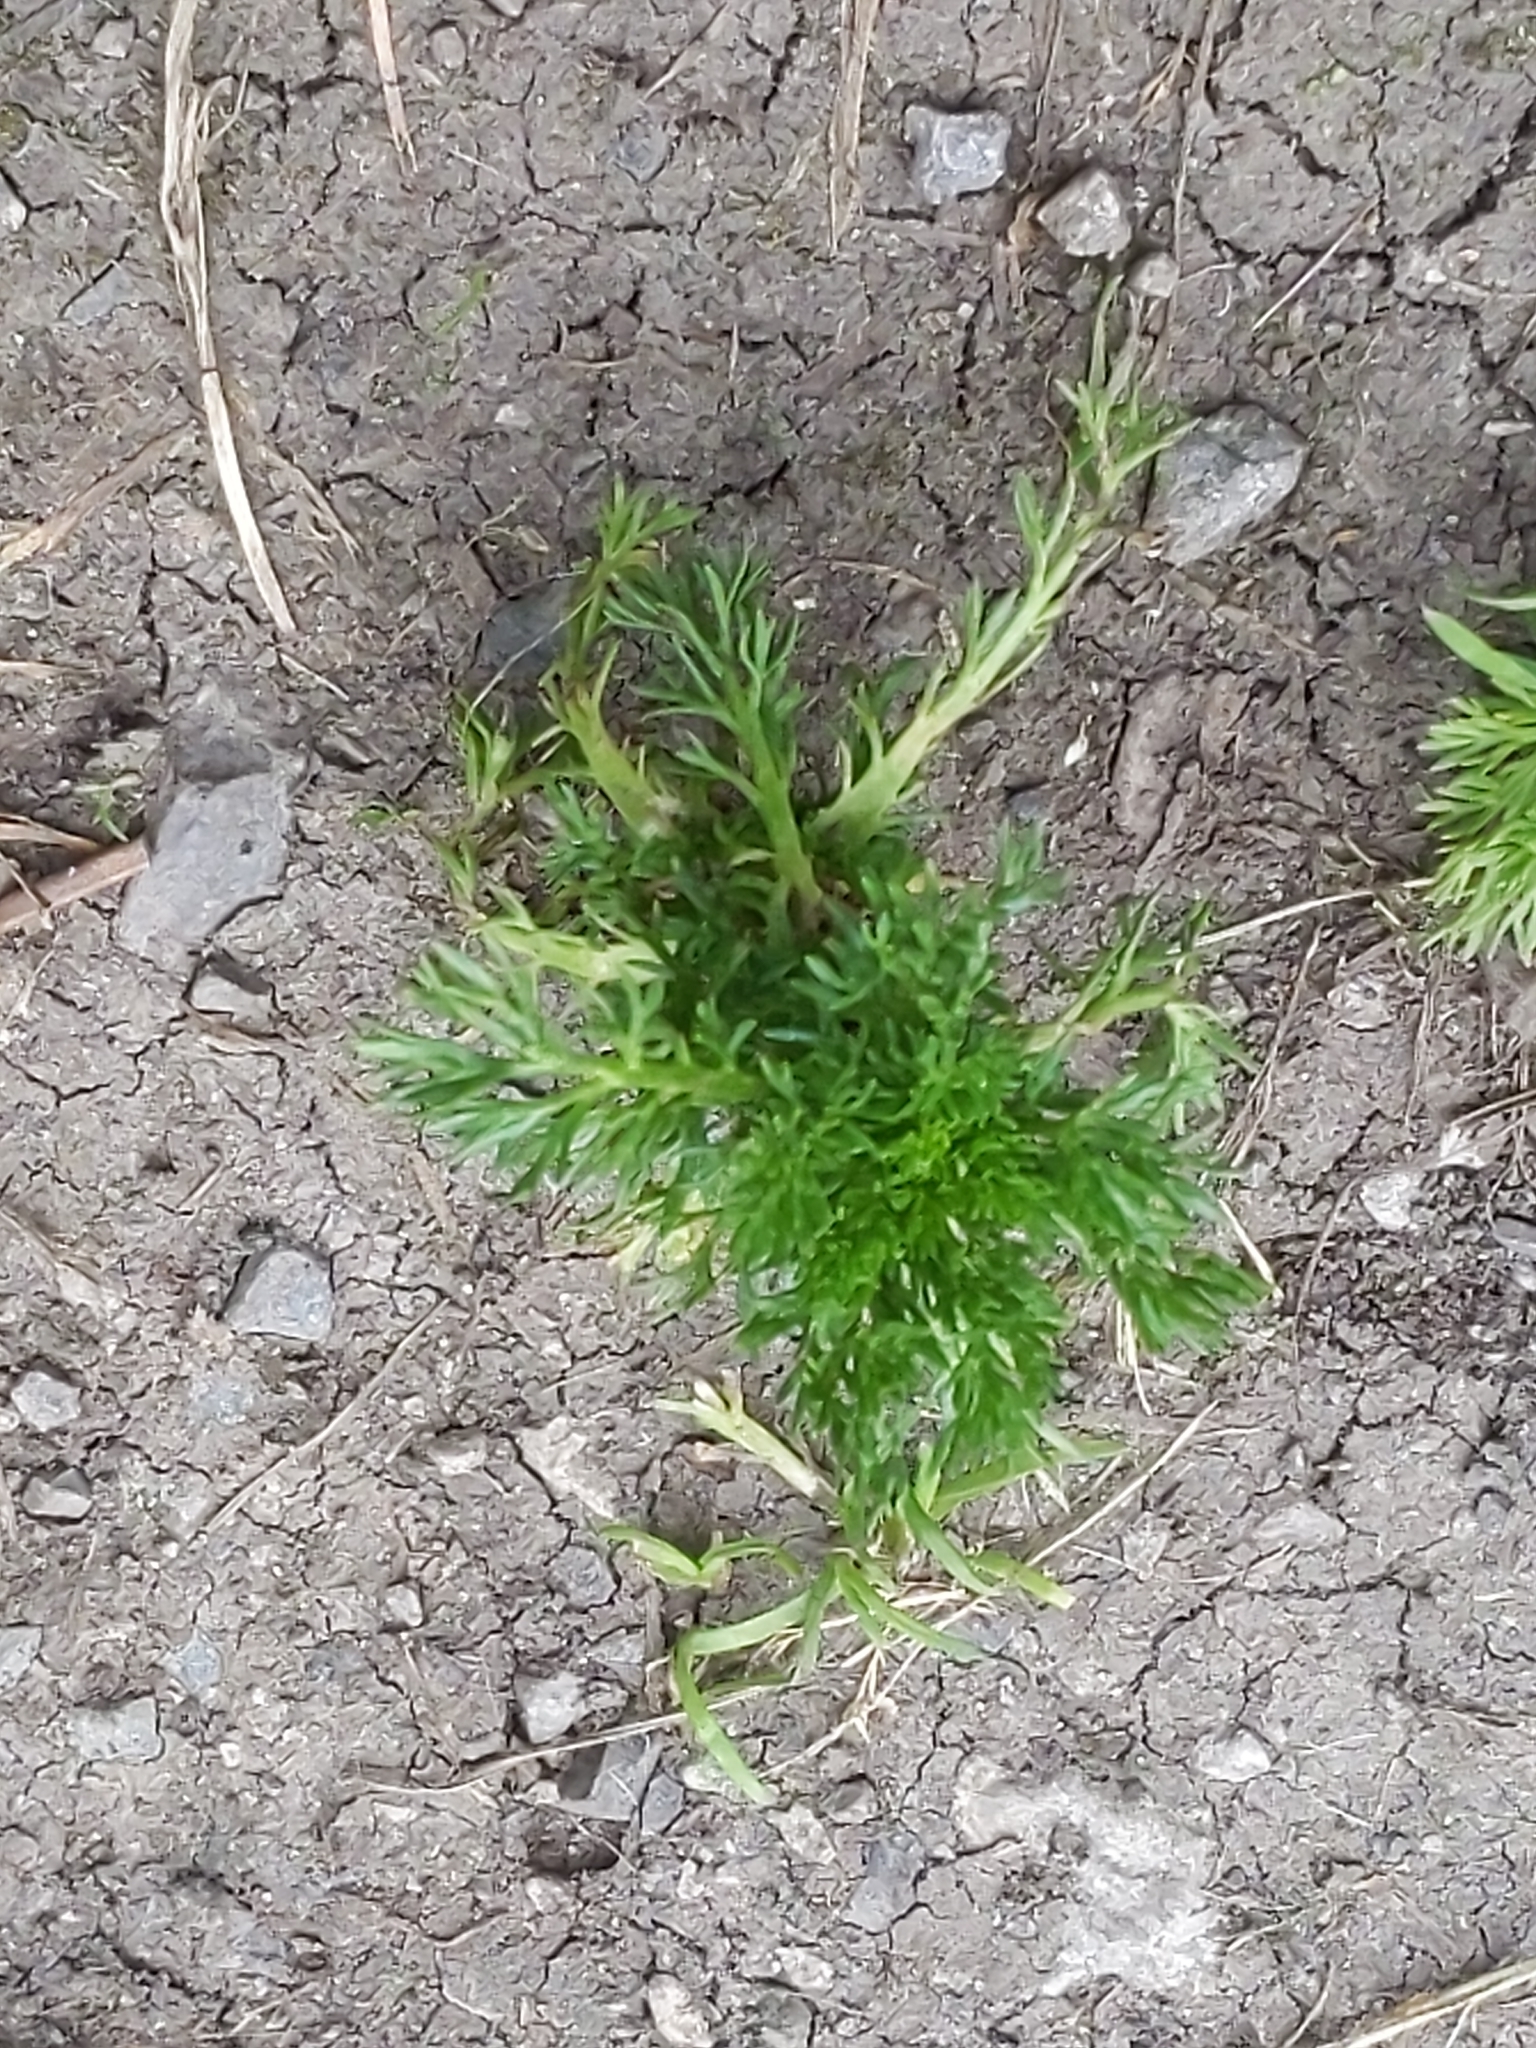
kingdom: Plantae
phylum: Tracheophyta
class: Magnoliopsida
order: Asterales
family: Asteraceae
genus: Matricaria
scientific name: Matricaria discoidea
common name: Disc mayweed
